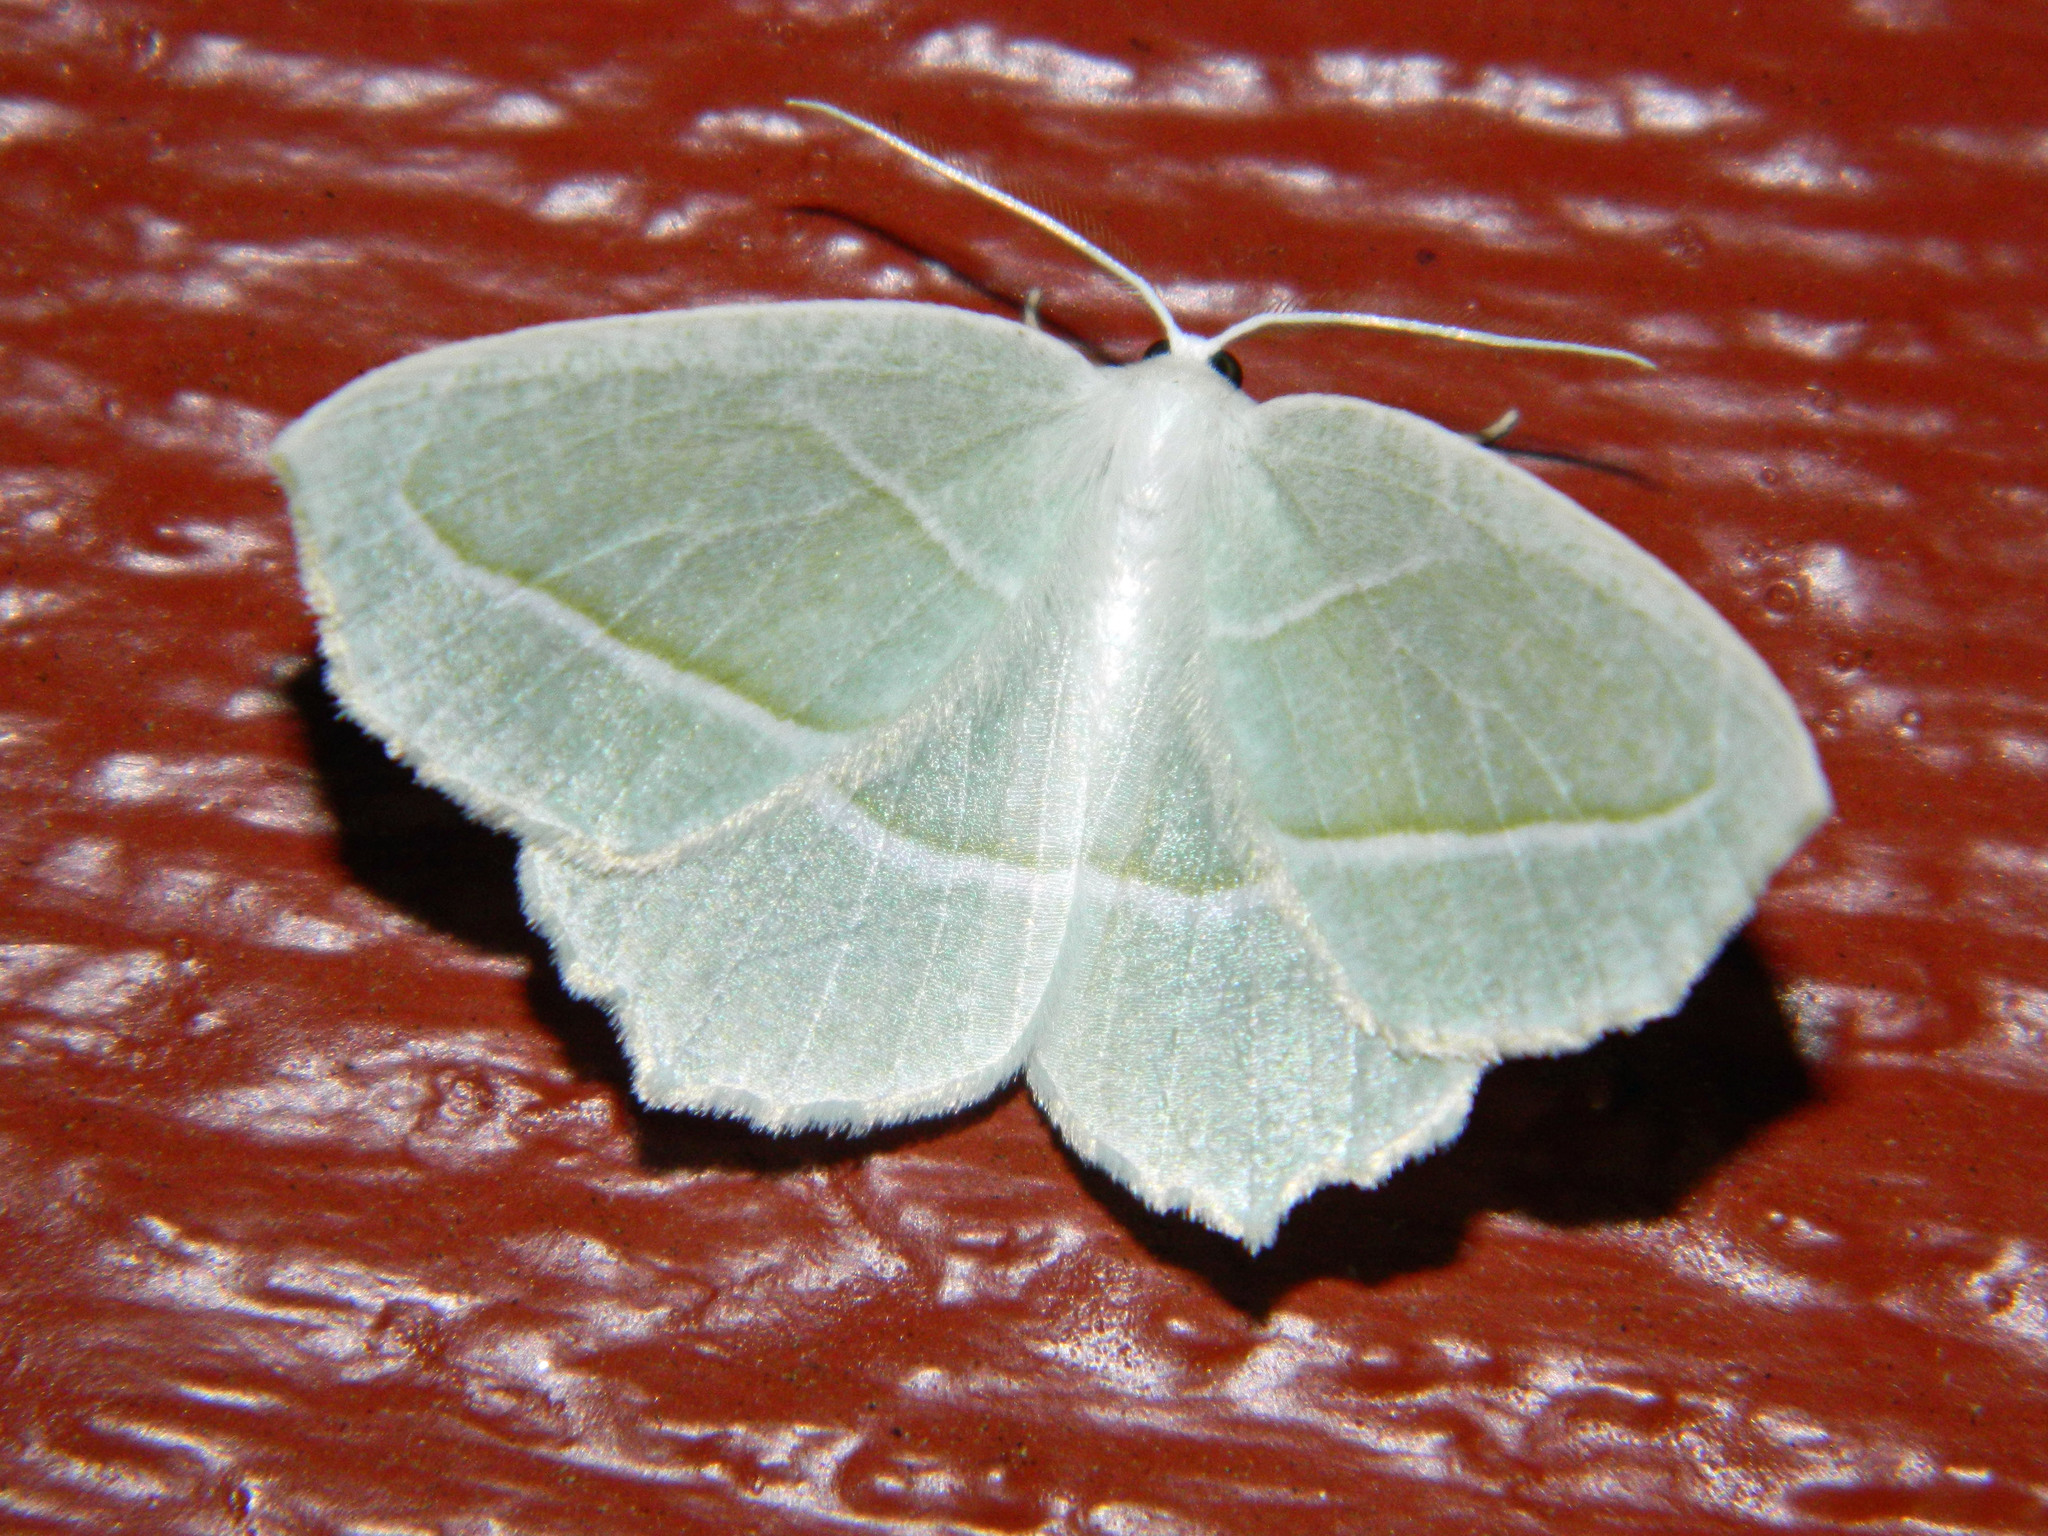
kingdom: Animalia
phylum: Arthropoda
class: Insecta
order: Lepidoptera
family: Geometridae
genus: Campaea
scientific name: Campaea perlata
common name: Fringed looper
